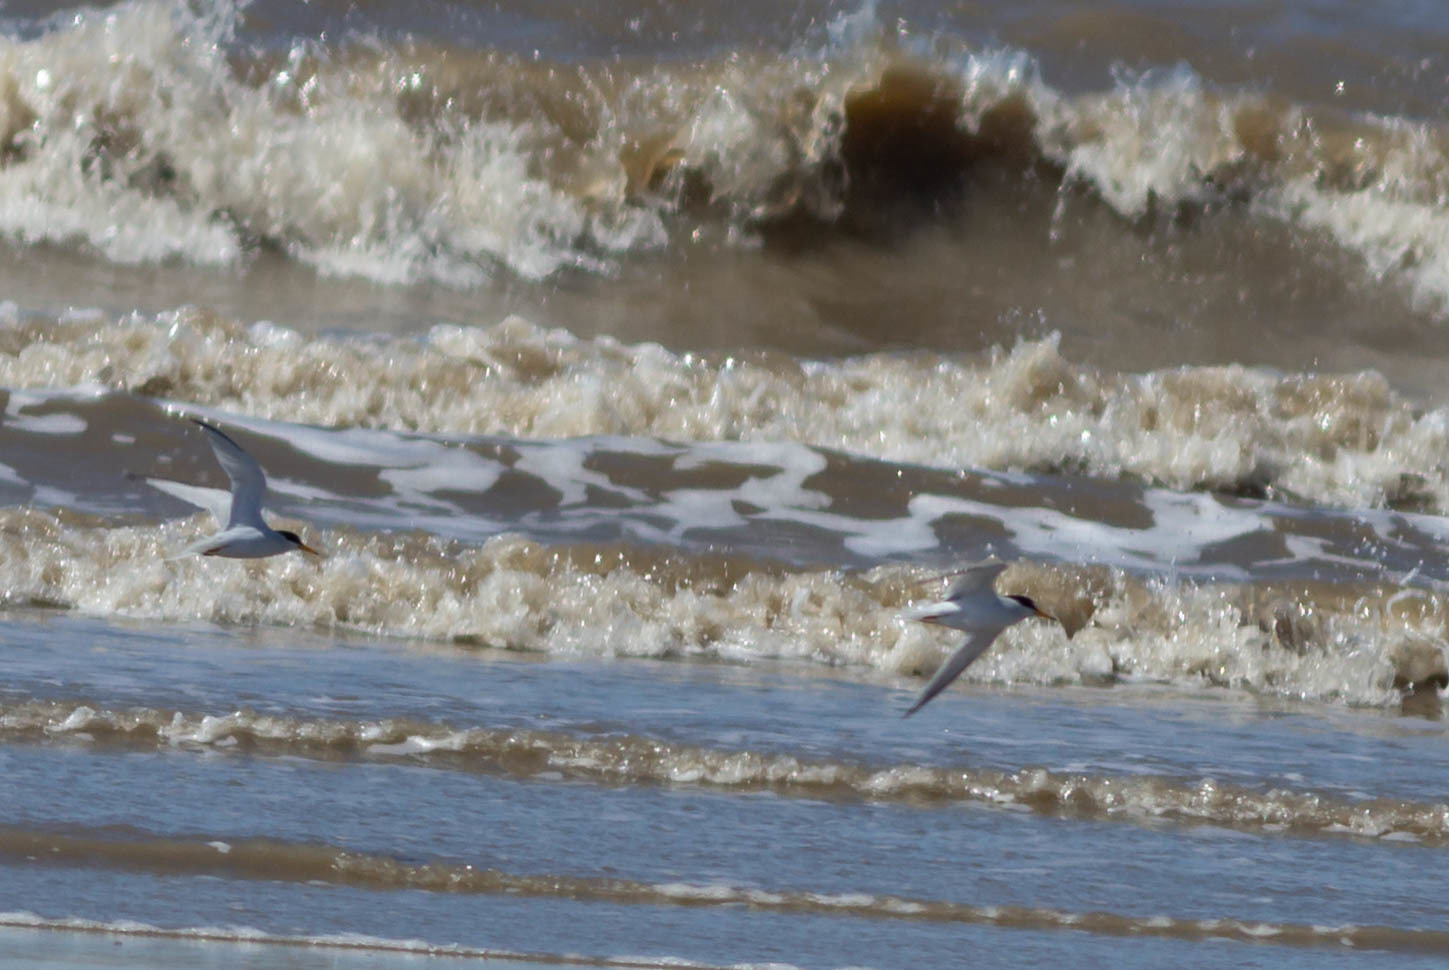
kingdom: Animalia
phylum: Chordata
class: Aves
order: Charadriiformes
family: Laridae
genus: Sternula
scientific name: Sternula antillarum
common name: Least tern
